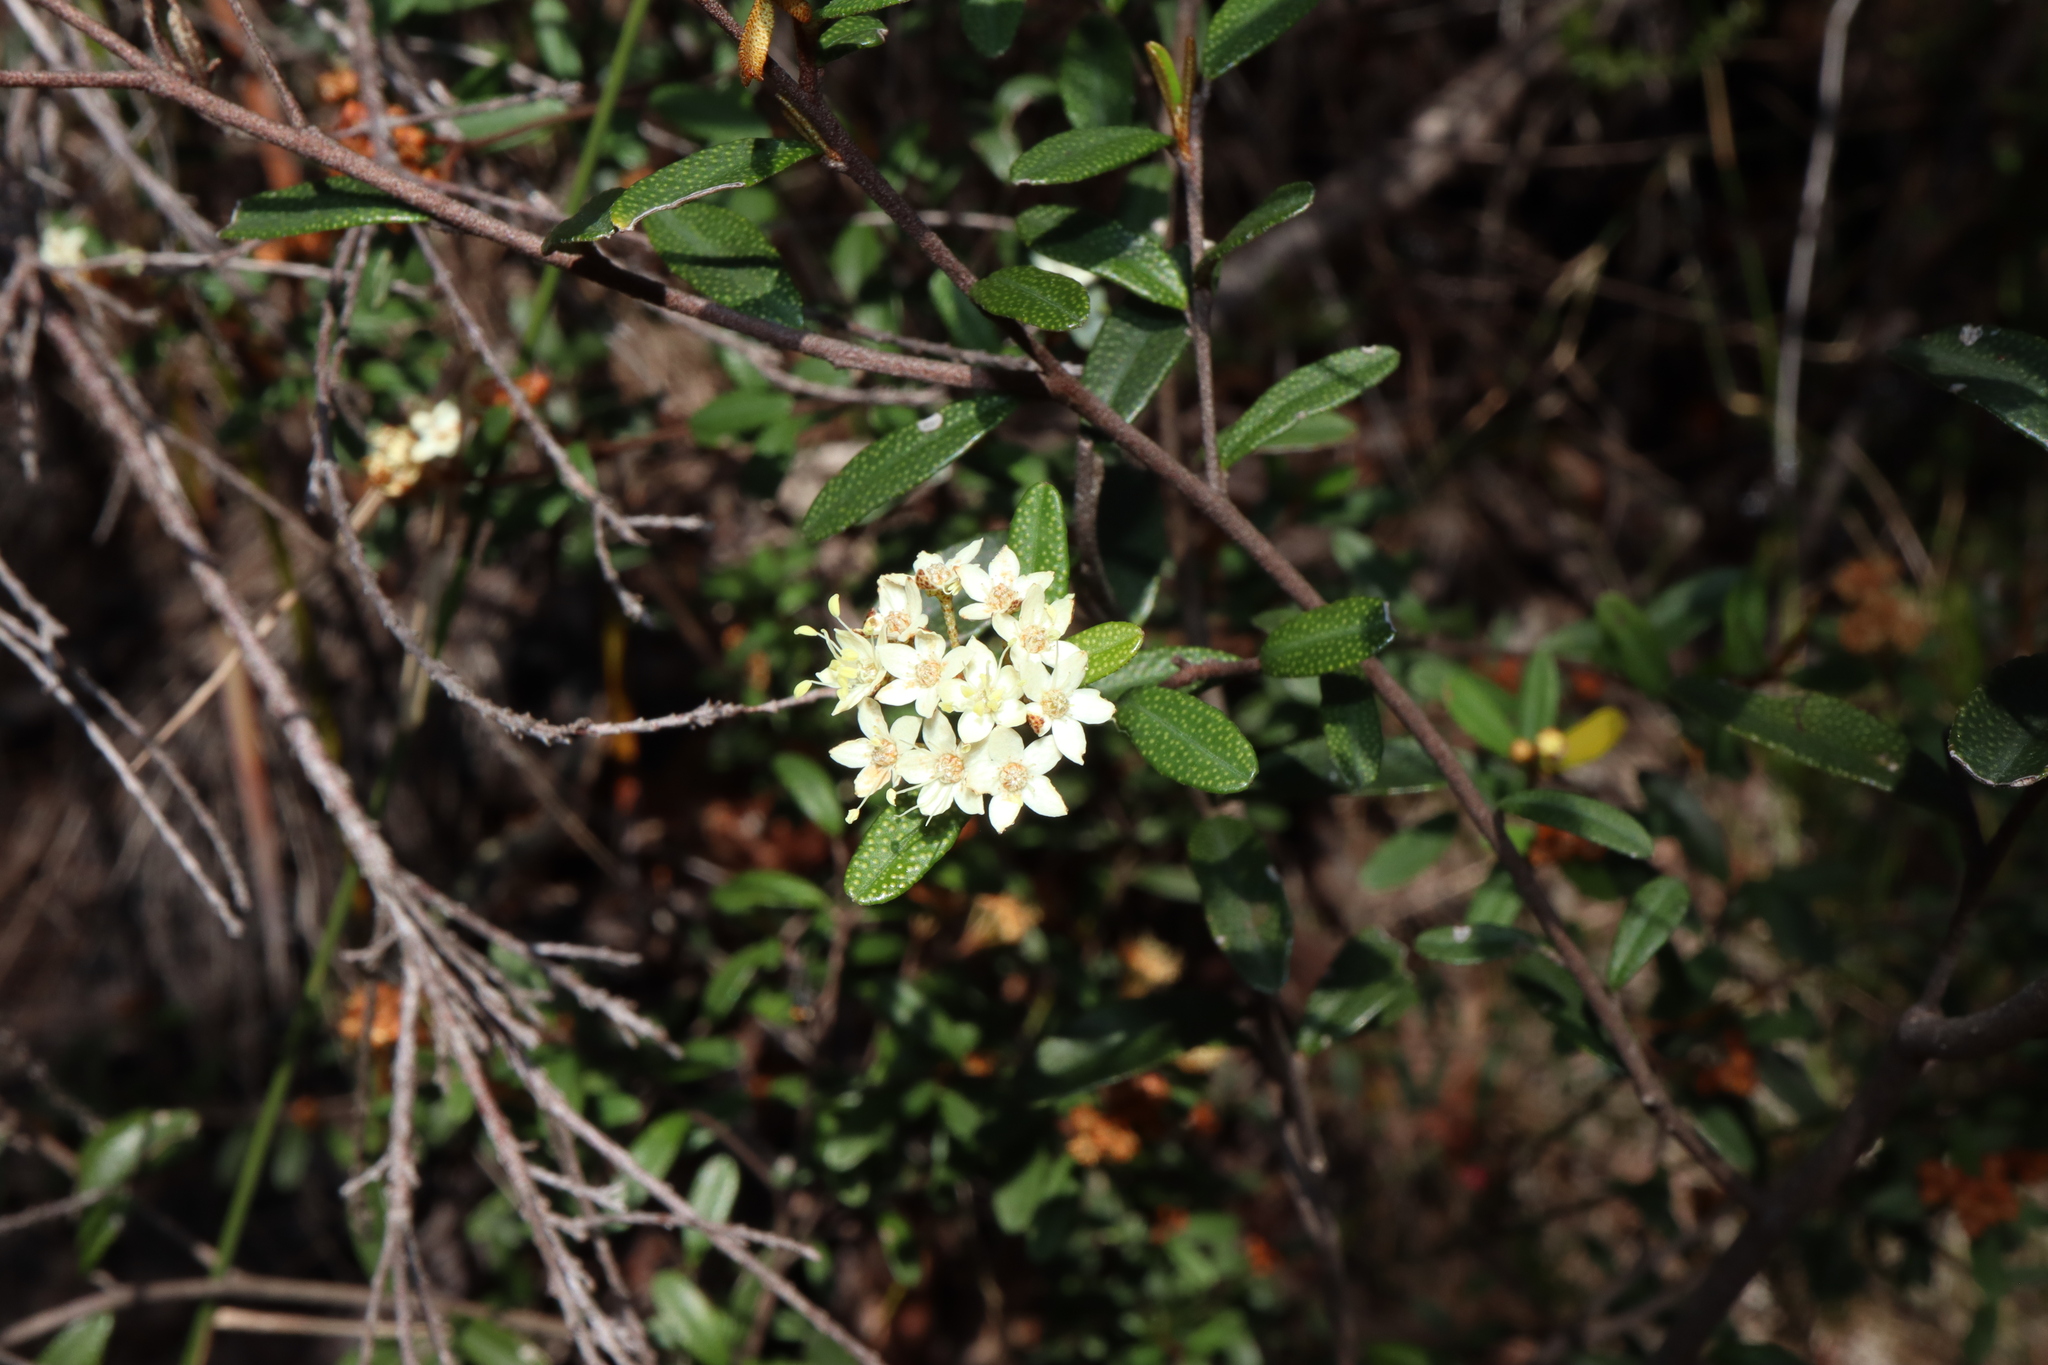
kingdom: Plantae
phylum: Tracheophyta
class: Magnoliopsida
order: Sapindales
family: Rutaceae
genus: Phebalium
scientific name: Phebalium squamulosum
